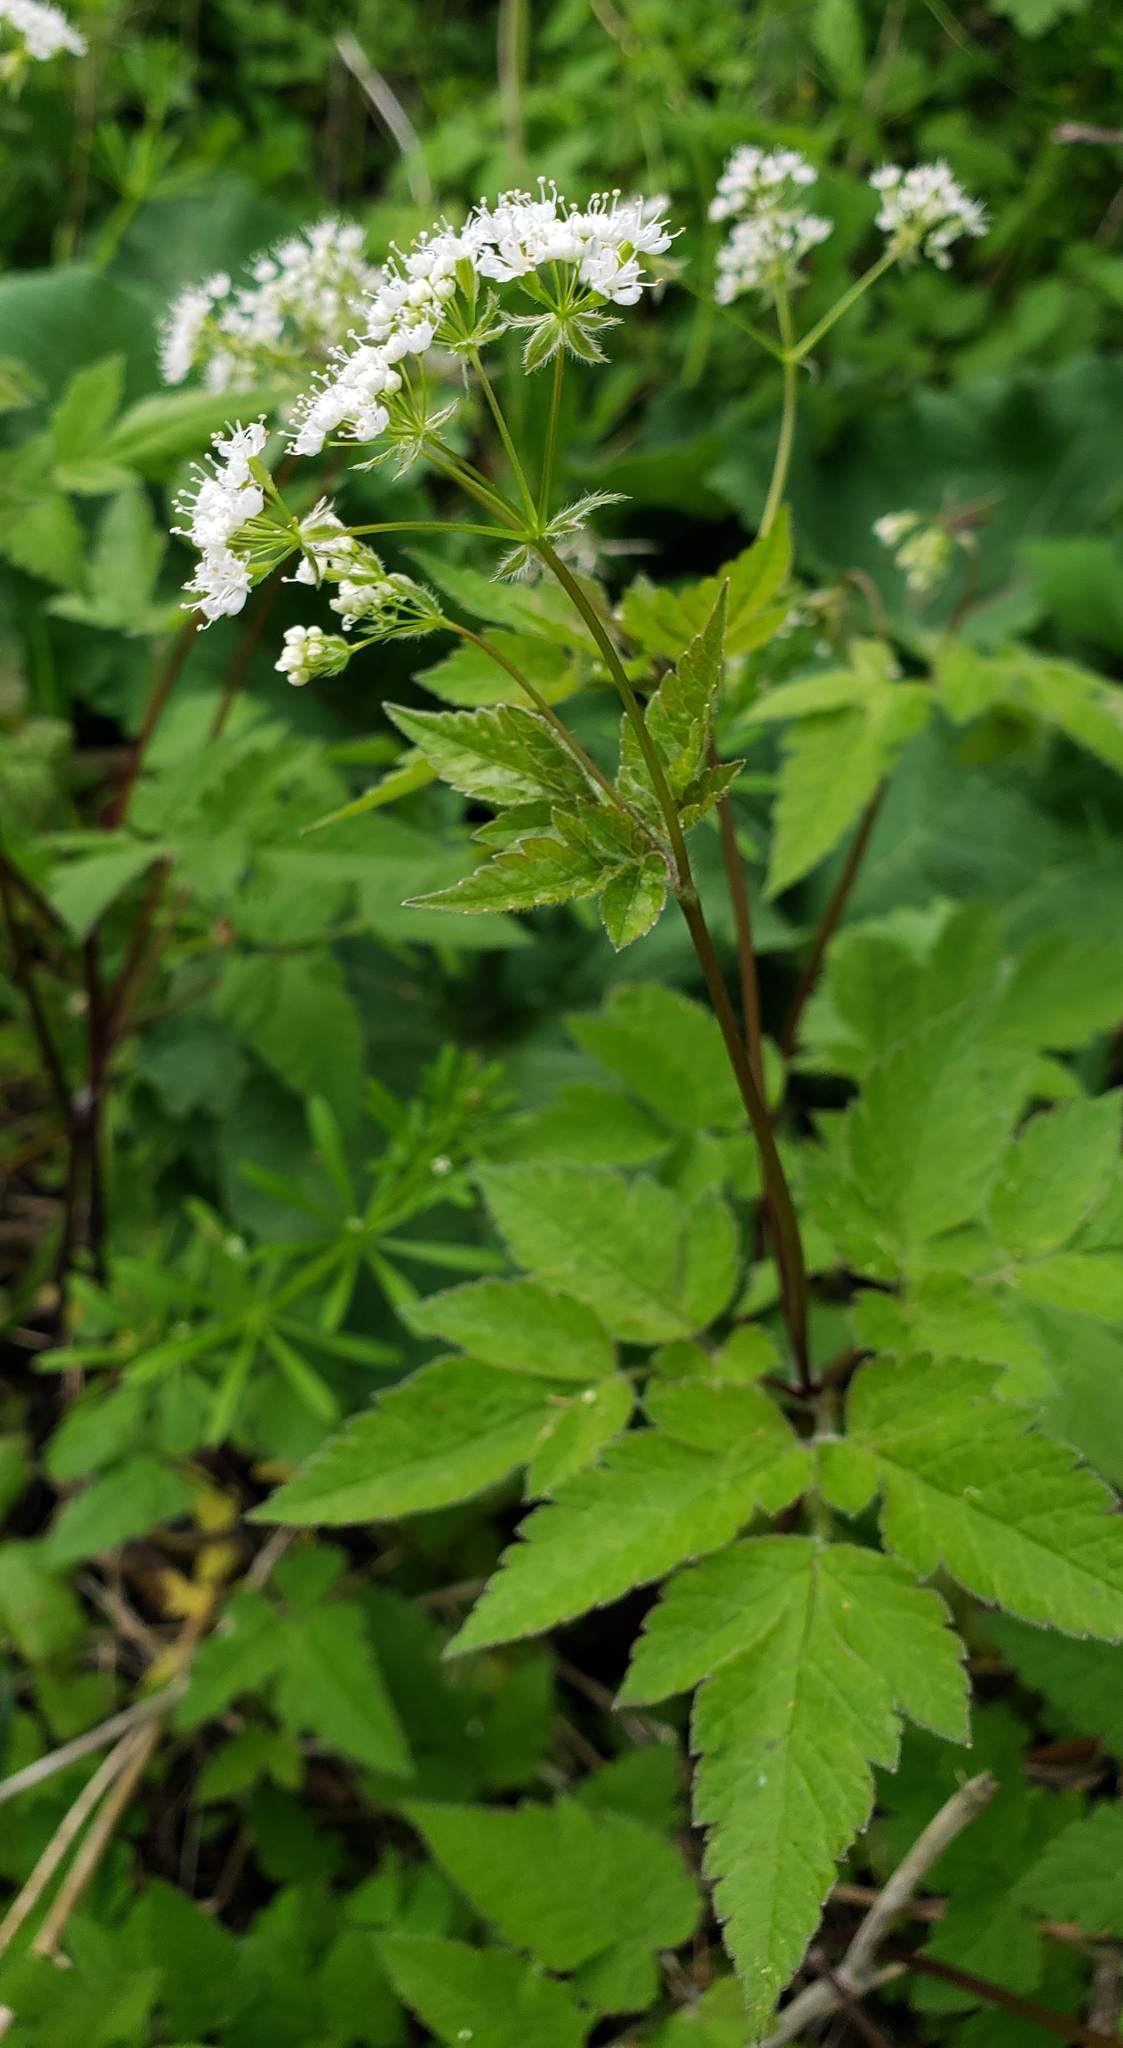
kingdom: Plantae
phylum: Tracheophyta
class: Magnoliopsida
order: Apiales
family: Apiaceae
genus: Osmorhiza
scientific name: Osmorhiza longistylis
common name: Smooth sweet cicely
